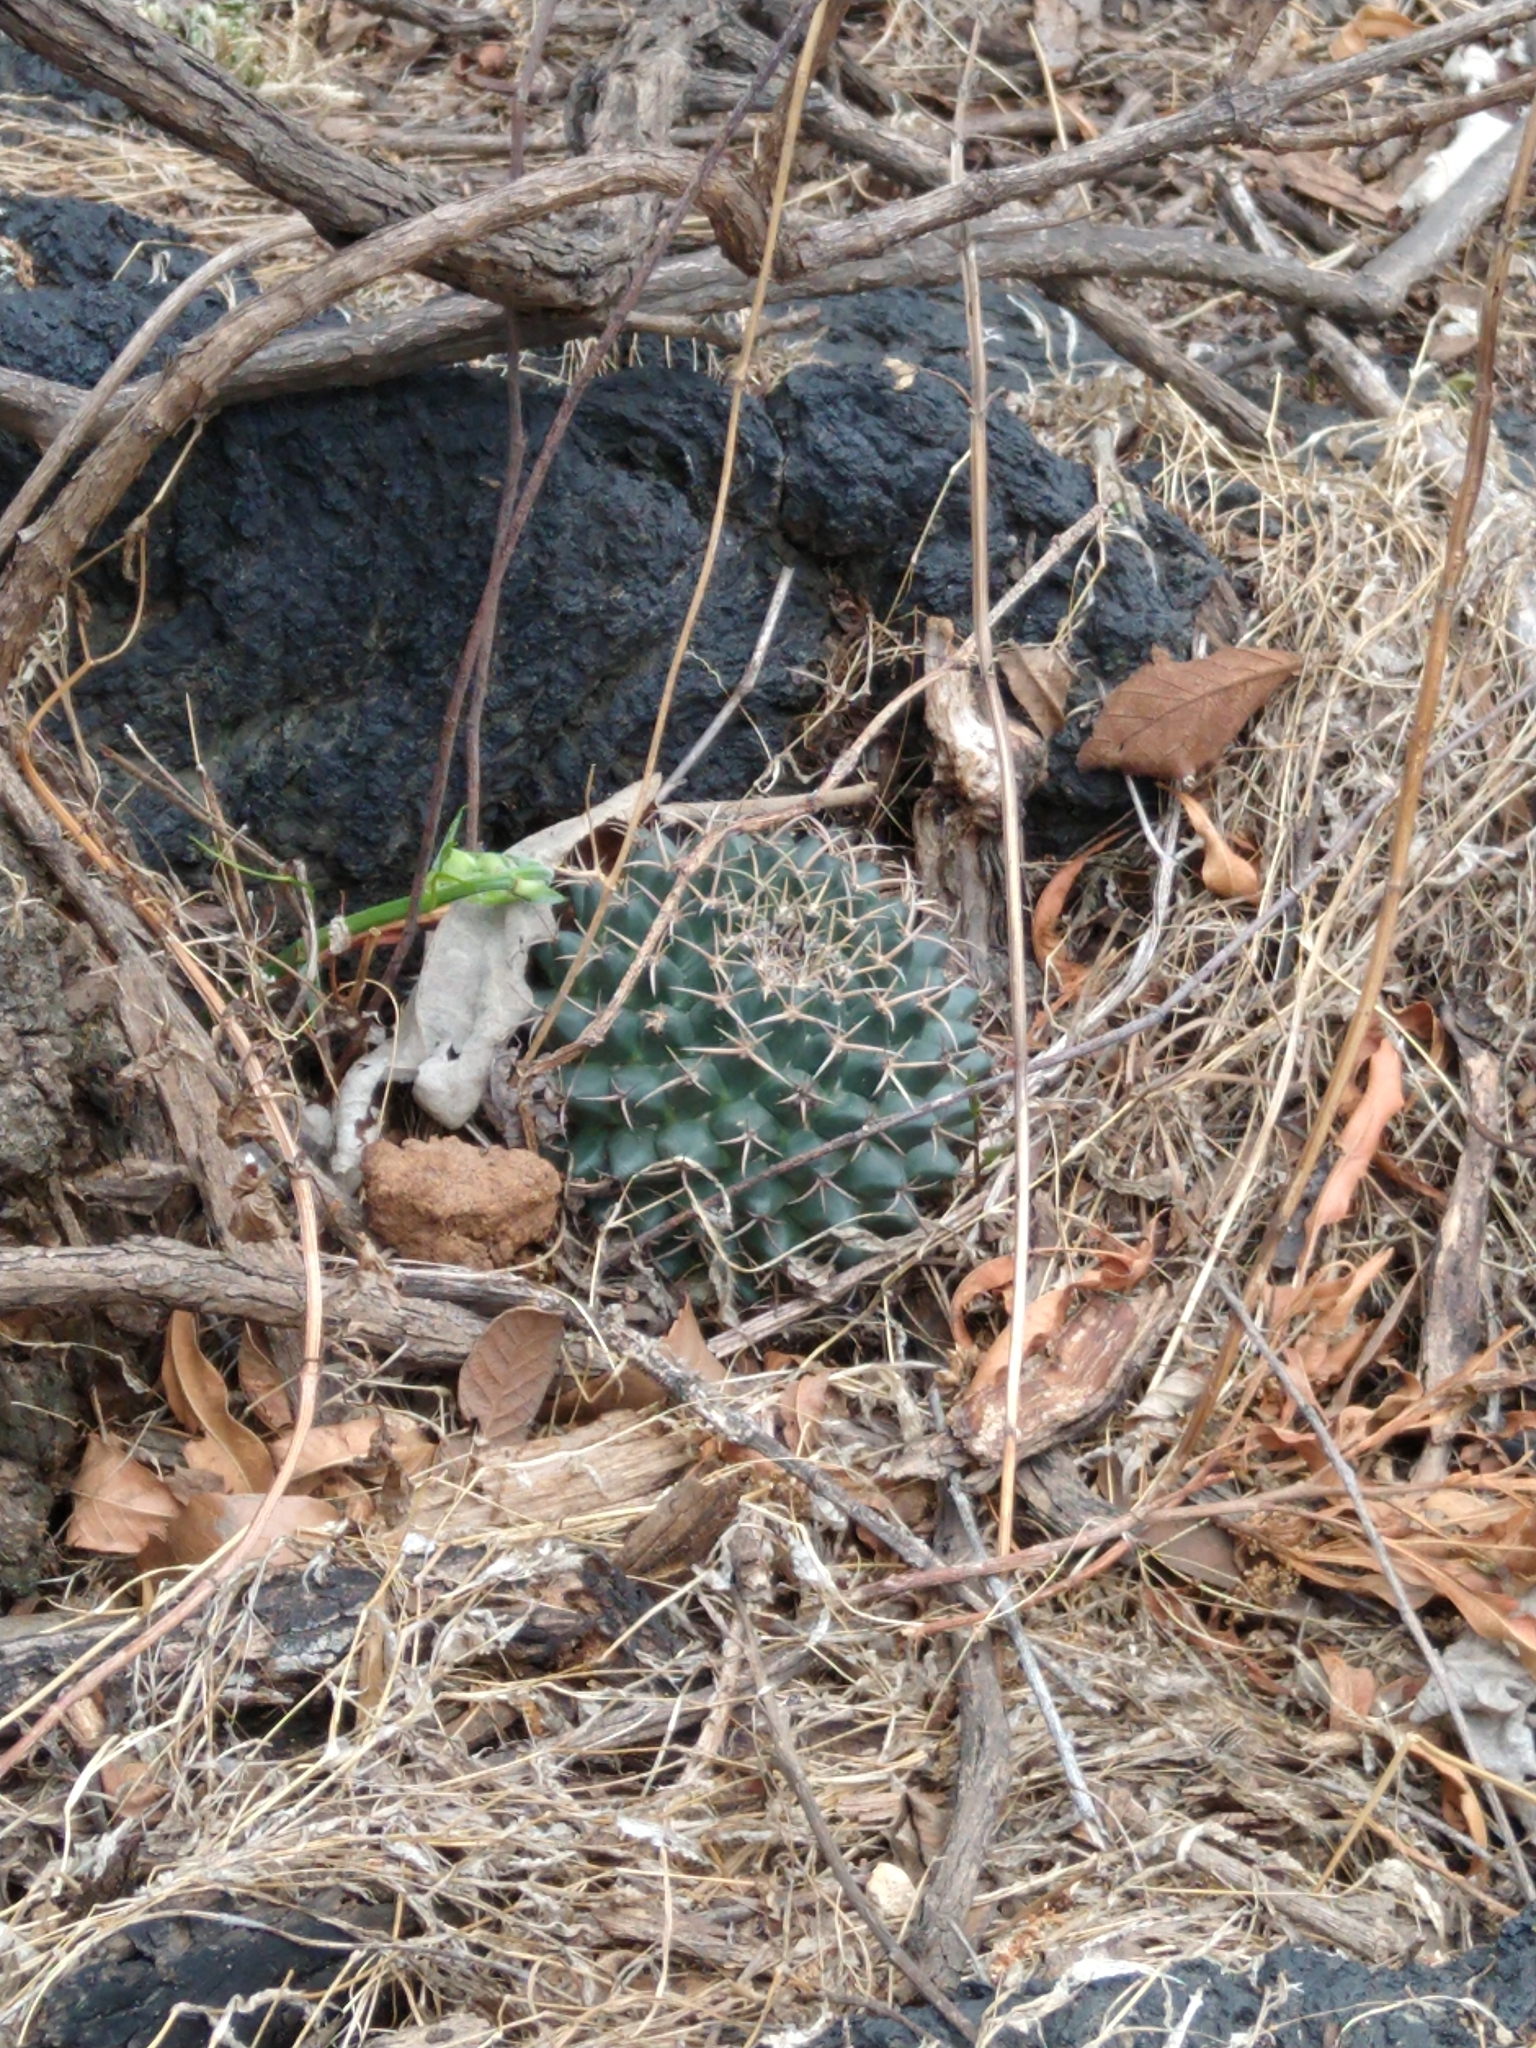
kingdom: Plantae
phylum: Tracheophyta
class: Magnoliopsida
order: Caryophyllales
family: Cactaceae
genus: Mammillaria
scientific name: Mammillaria magnimamma
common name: Mexican pincushion
